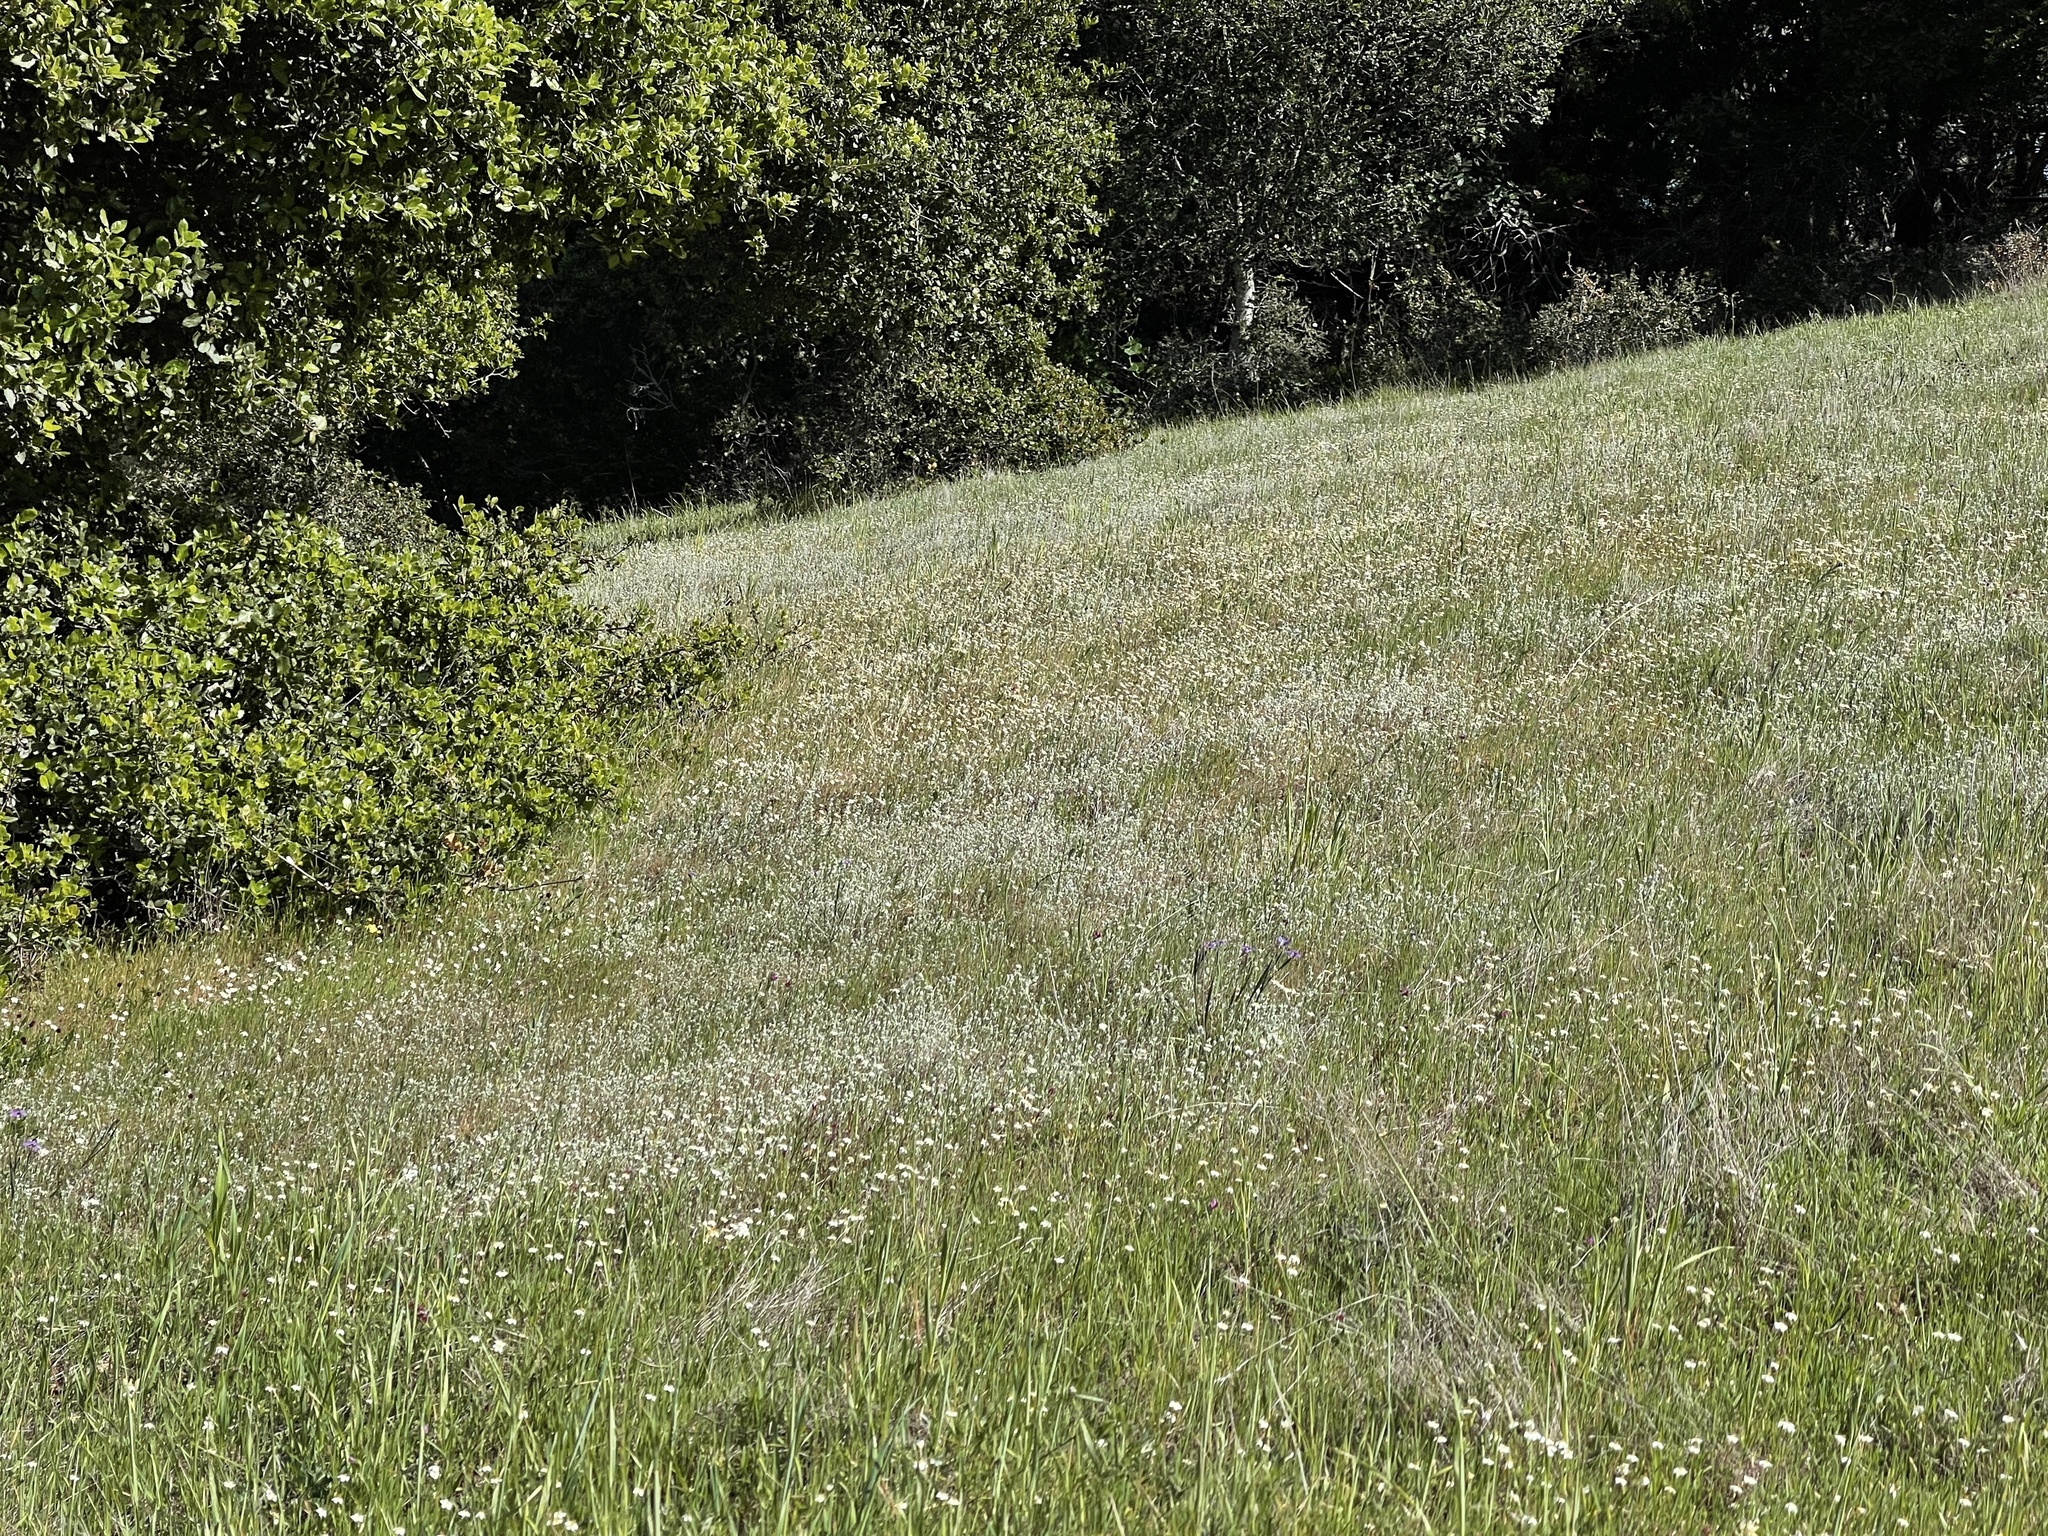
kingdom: Plantae
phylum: Tracheophyta
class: Magnoliopsida
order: Ericales
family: Polemoniaceae
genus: Leptosiphon
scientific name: Leptosiphon parviflorus
